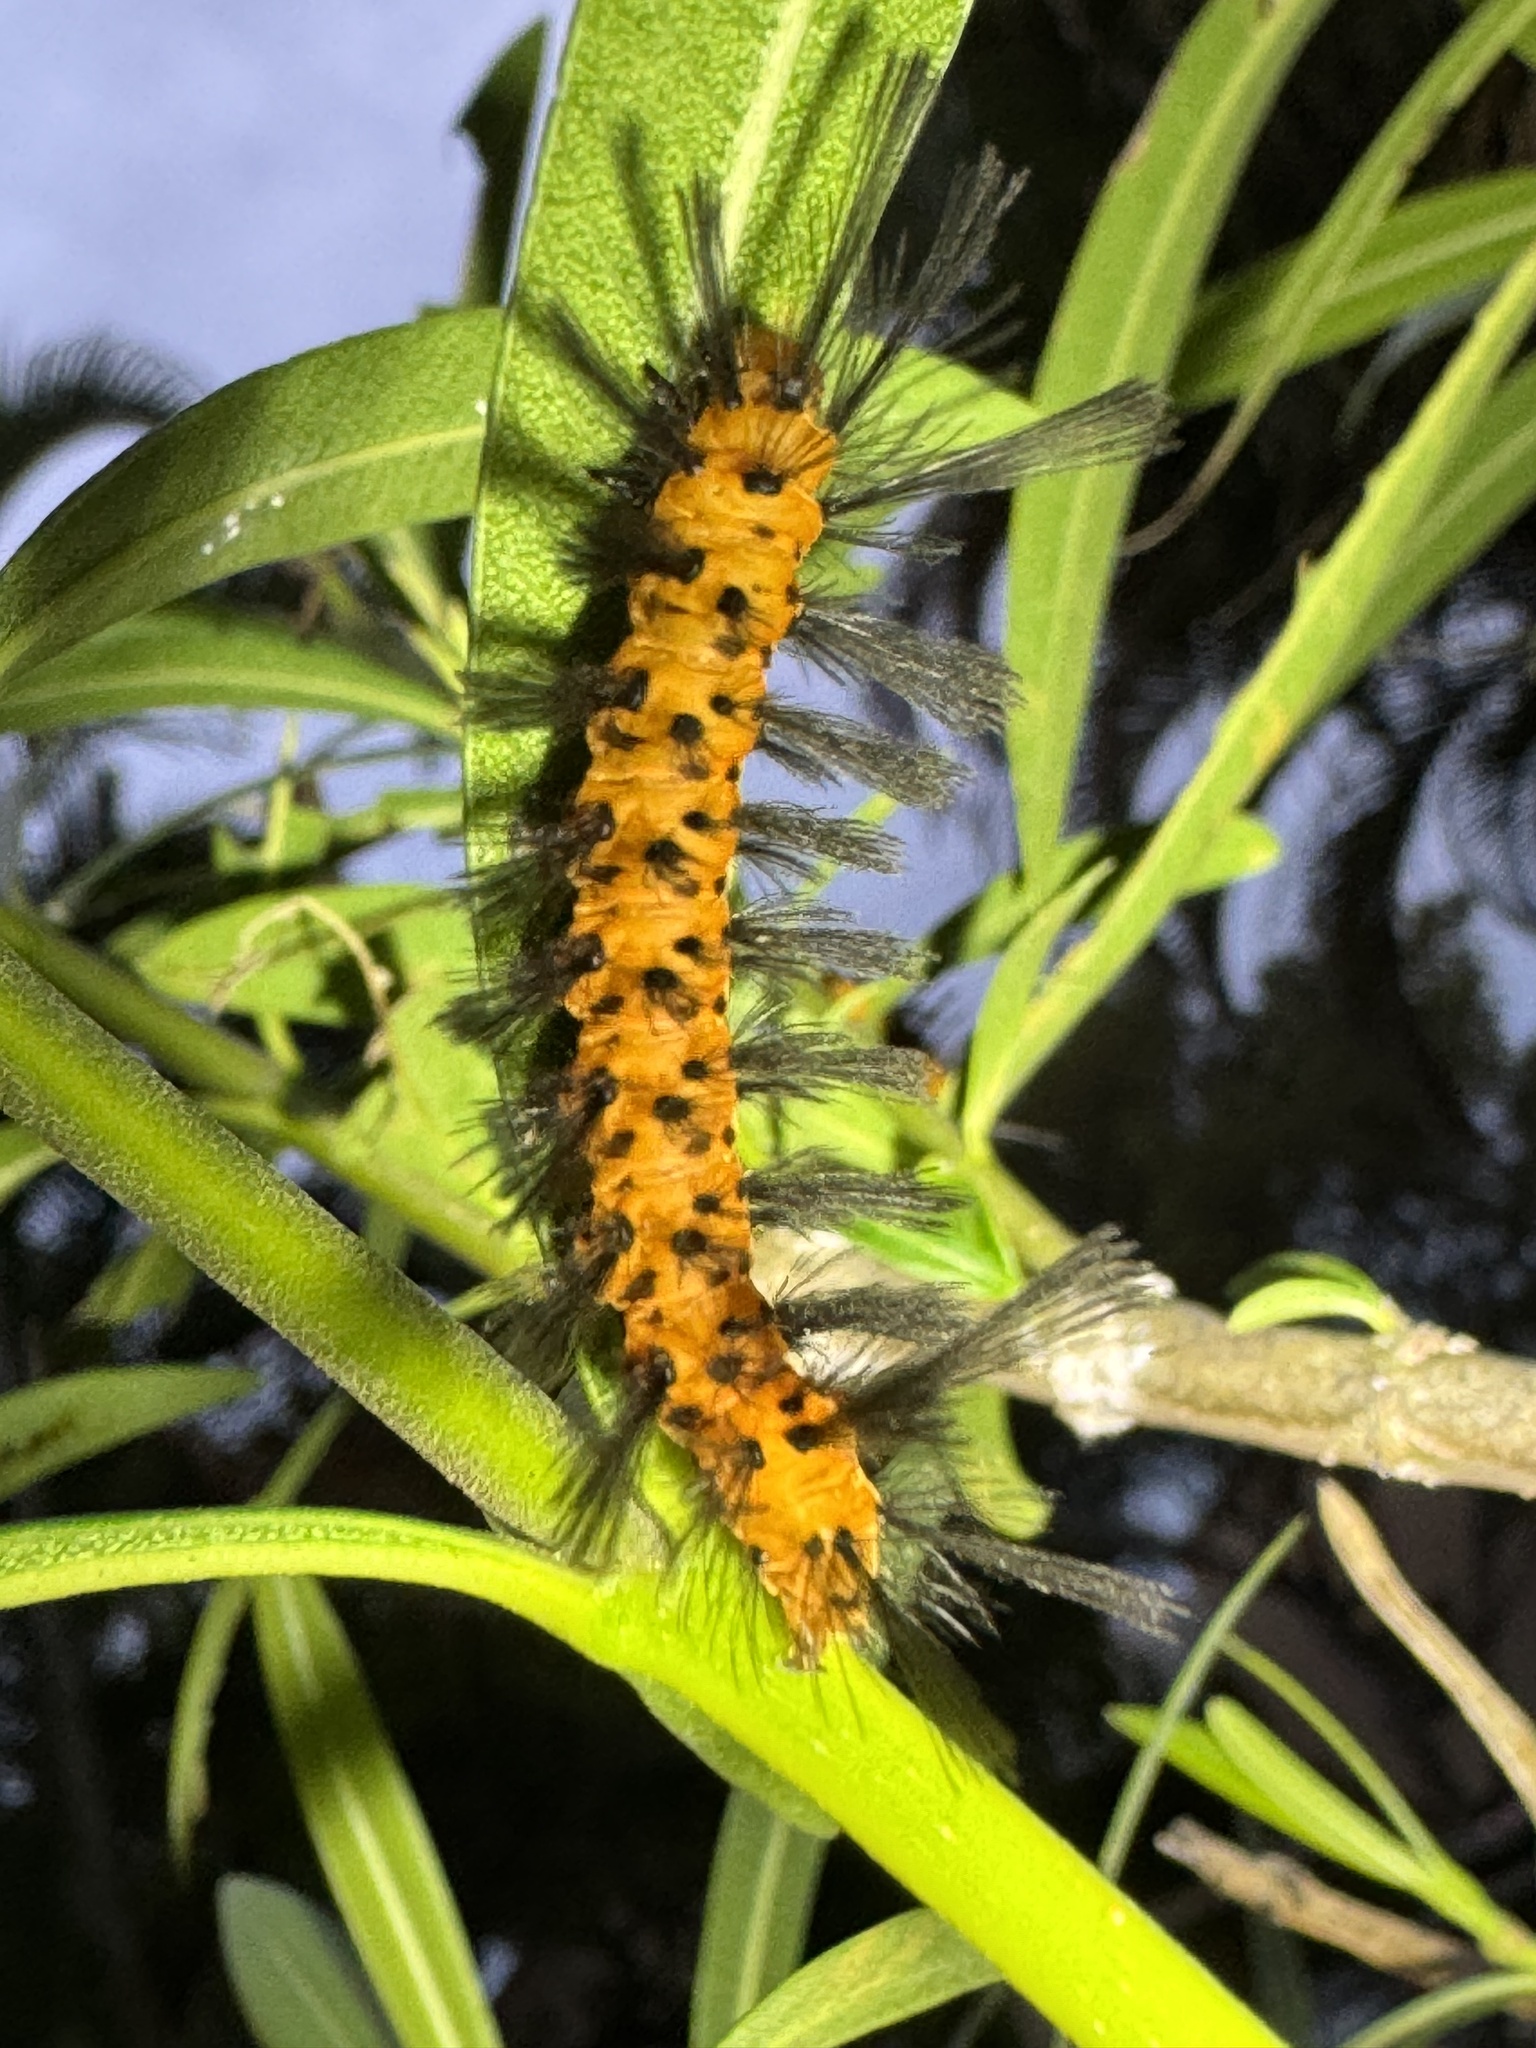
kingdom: Animalia
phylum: Arthropoda
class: Insecta
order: Lepidoptera
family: Erebidae
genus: Syntomeida
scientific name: Syntomeida epilais
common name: Polka-dot wasp moth
